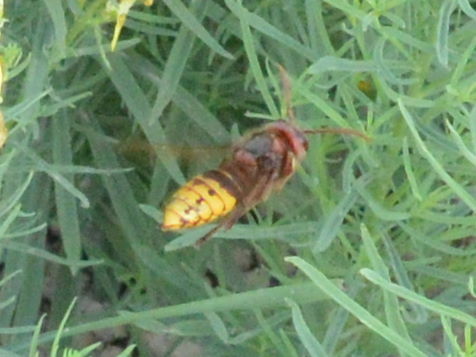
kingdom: Animalia
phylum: Arthropoda
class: Insecta
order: Hymenoptera
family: Vespidae
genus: Vespa
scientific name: Vespa crabro
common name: Hornet
